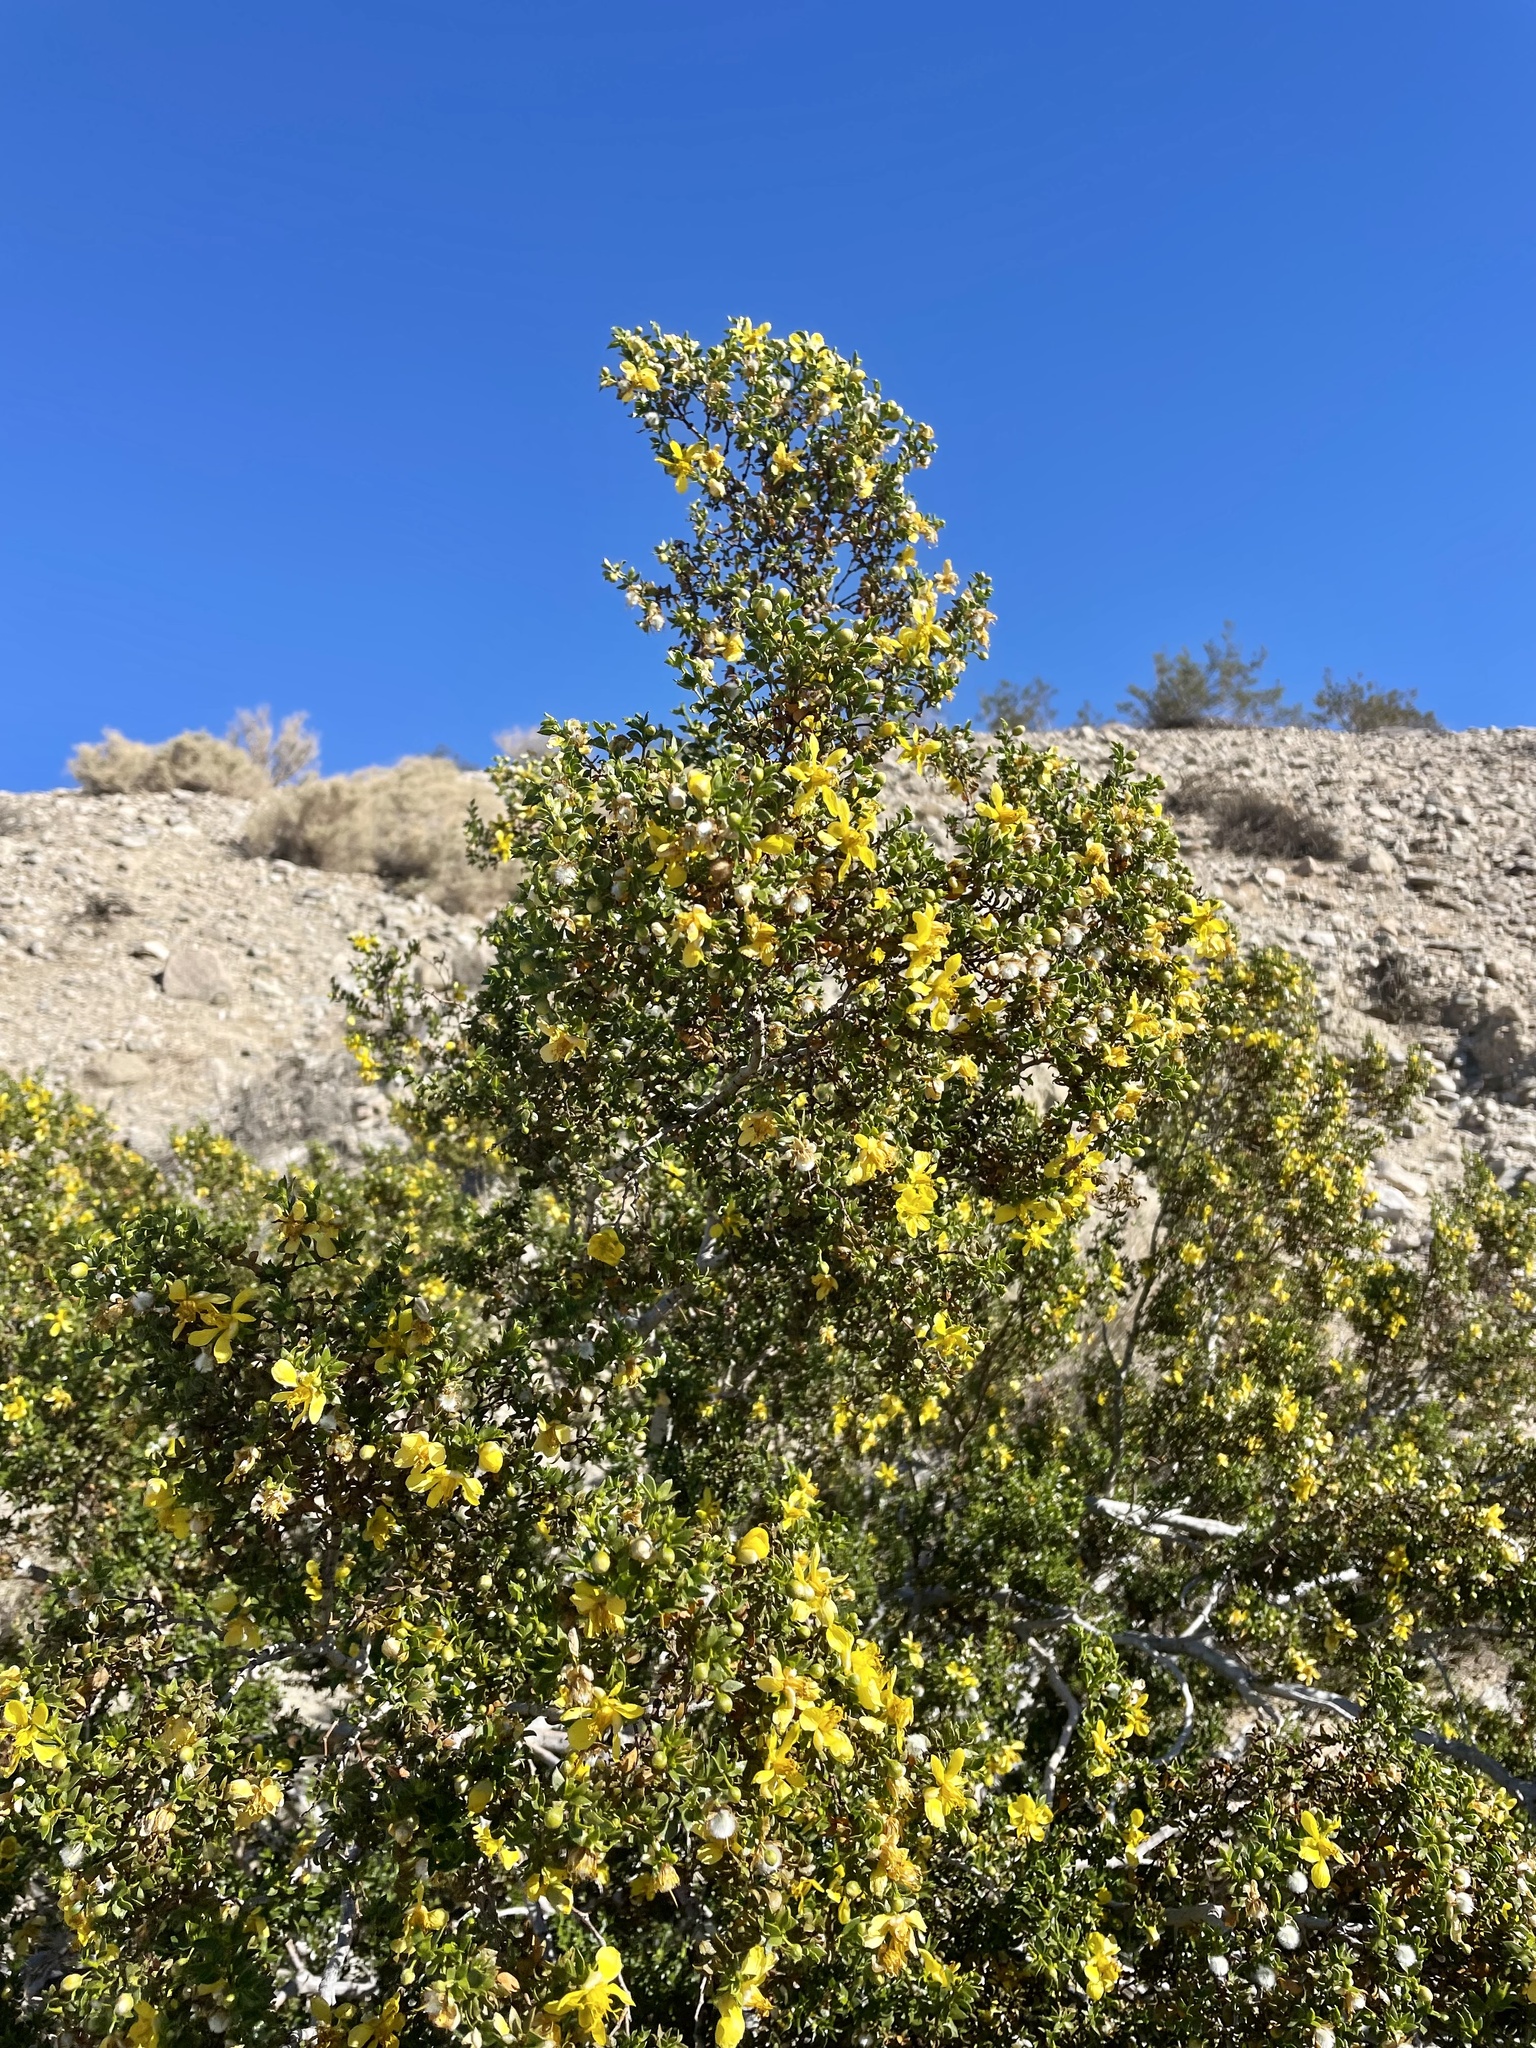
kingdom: Plantae
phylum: Tracheophyta
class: Magnoliopsida
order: Zygophyllales
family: Zygophyllaceae
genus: Larrea
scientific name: Larrea tridentata
